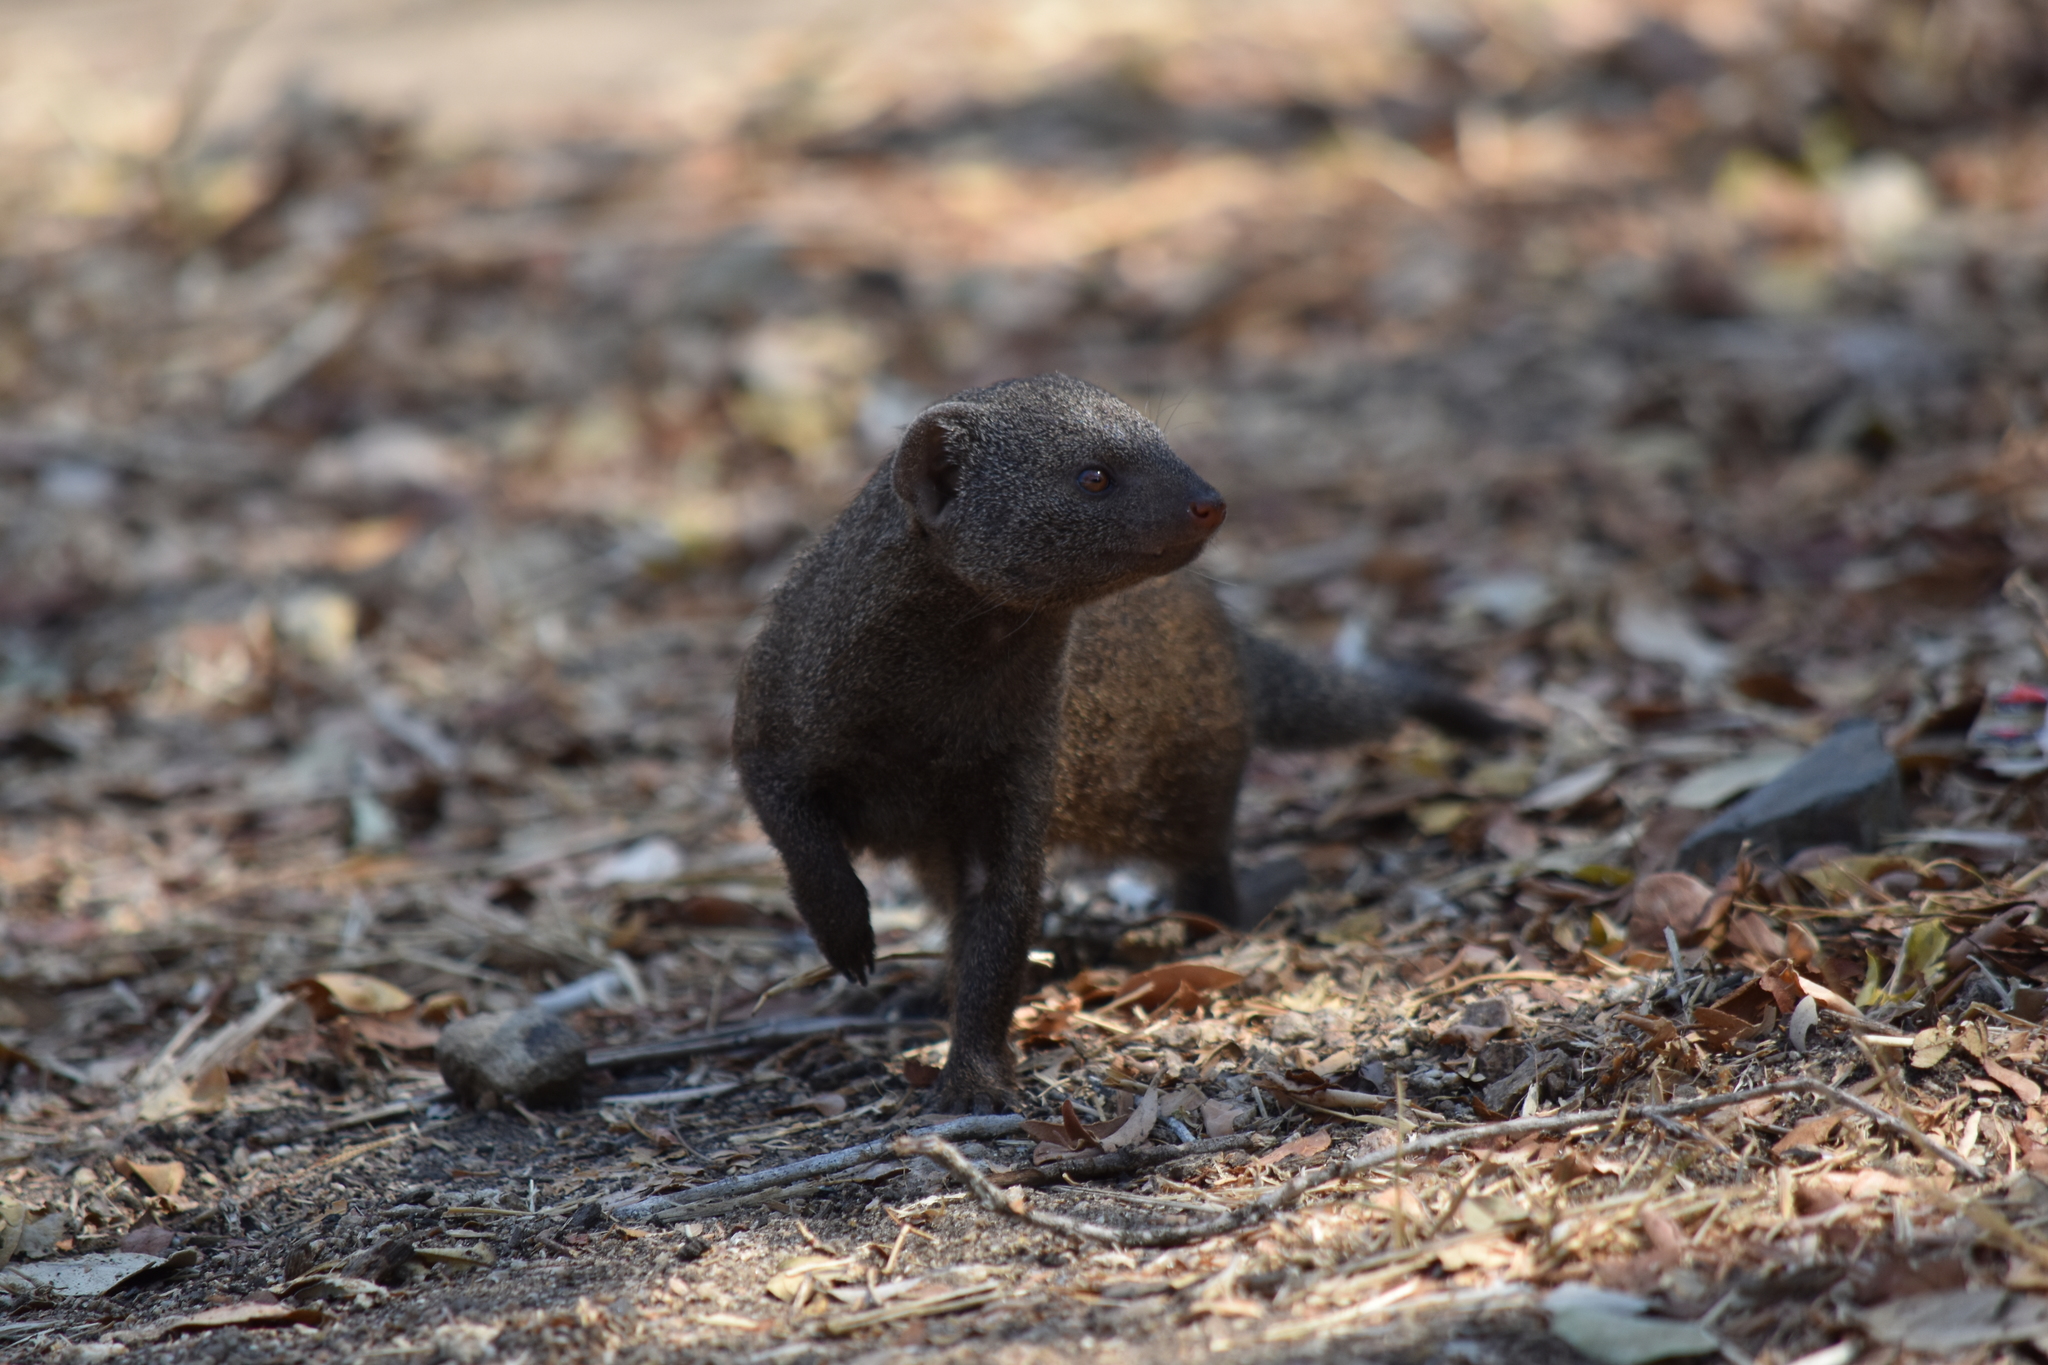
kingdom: Animalia
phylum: Chordata
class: Mammalia
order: Carnivora
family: Herpestidae
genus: Helogale
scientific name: Helogale parvula
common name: Common dwarf mongoose
